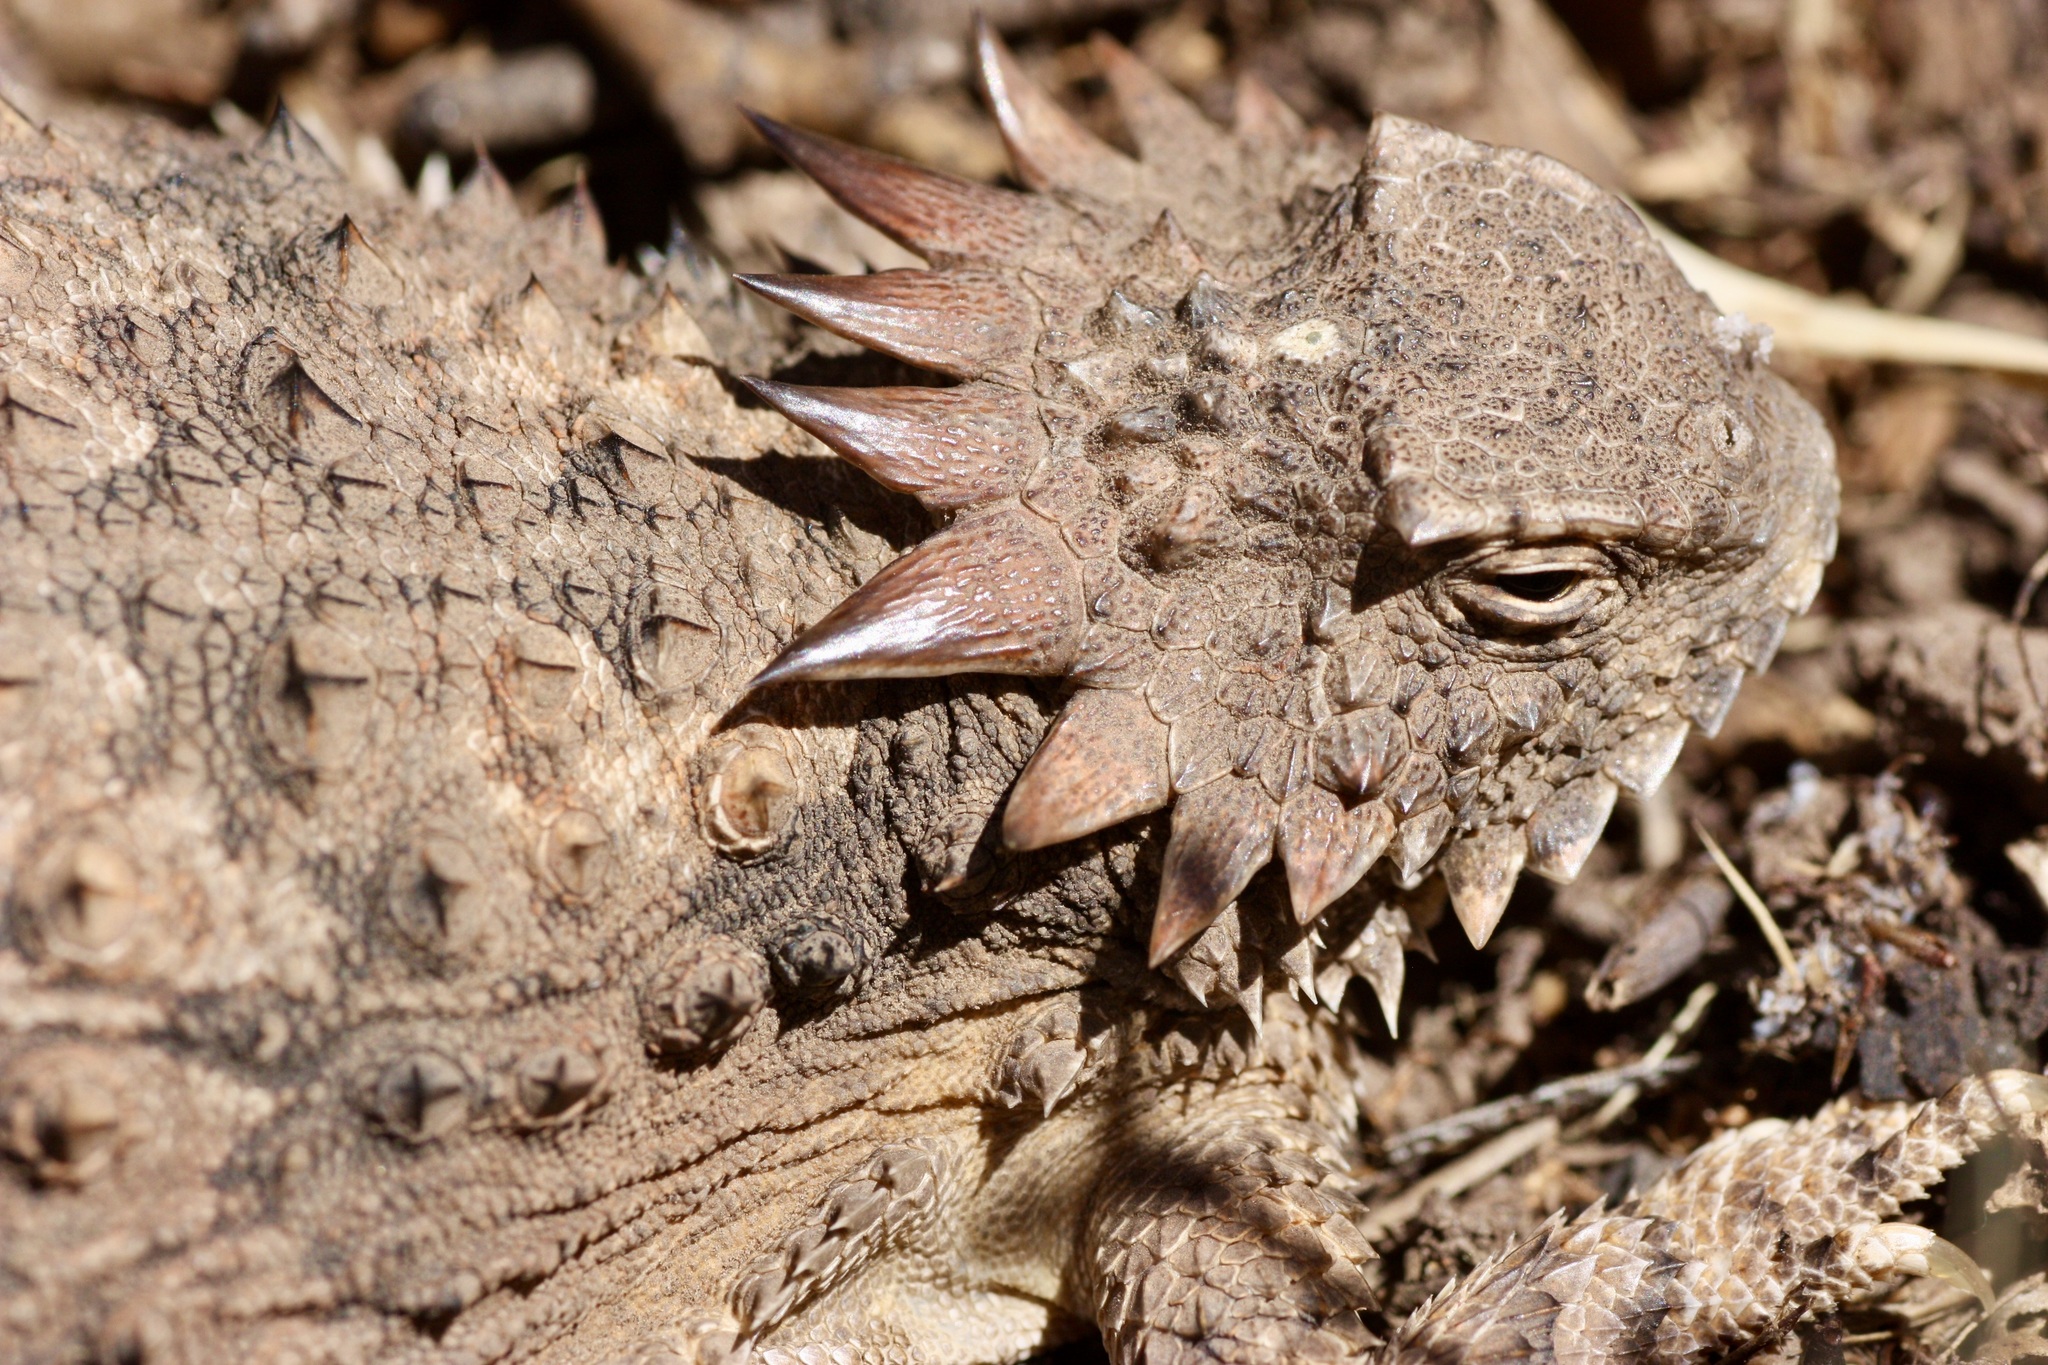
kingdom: Animalia
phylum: Chordata
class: Squamata
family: Phrynosomatidae
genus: Phrynosoma
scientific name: Phrynosoma solare
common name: Regal horned lizard
